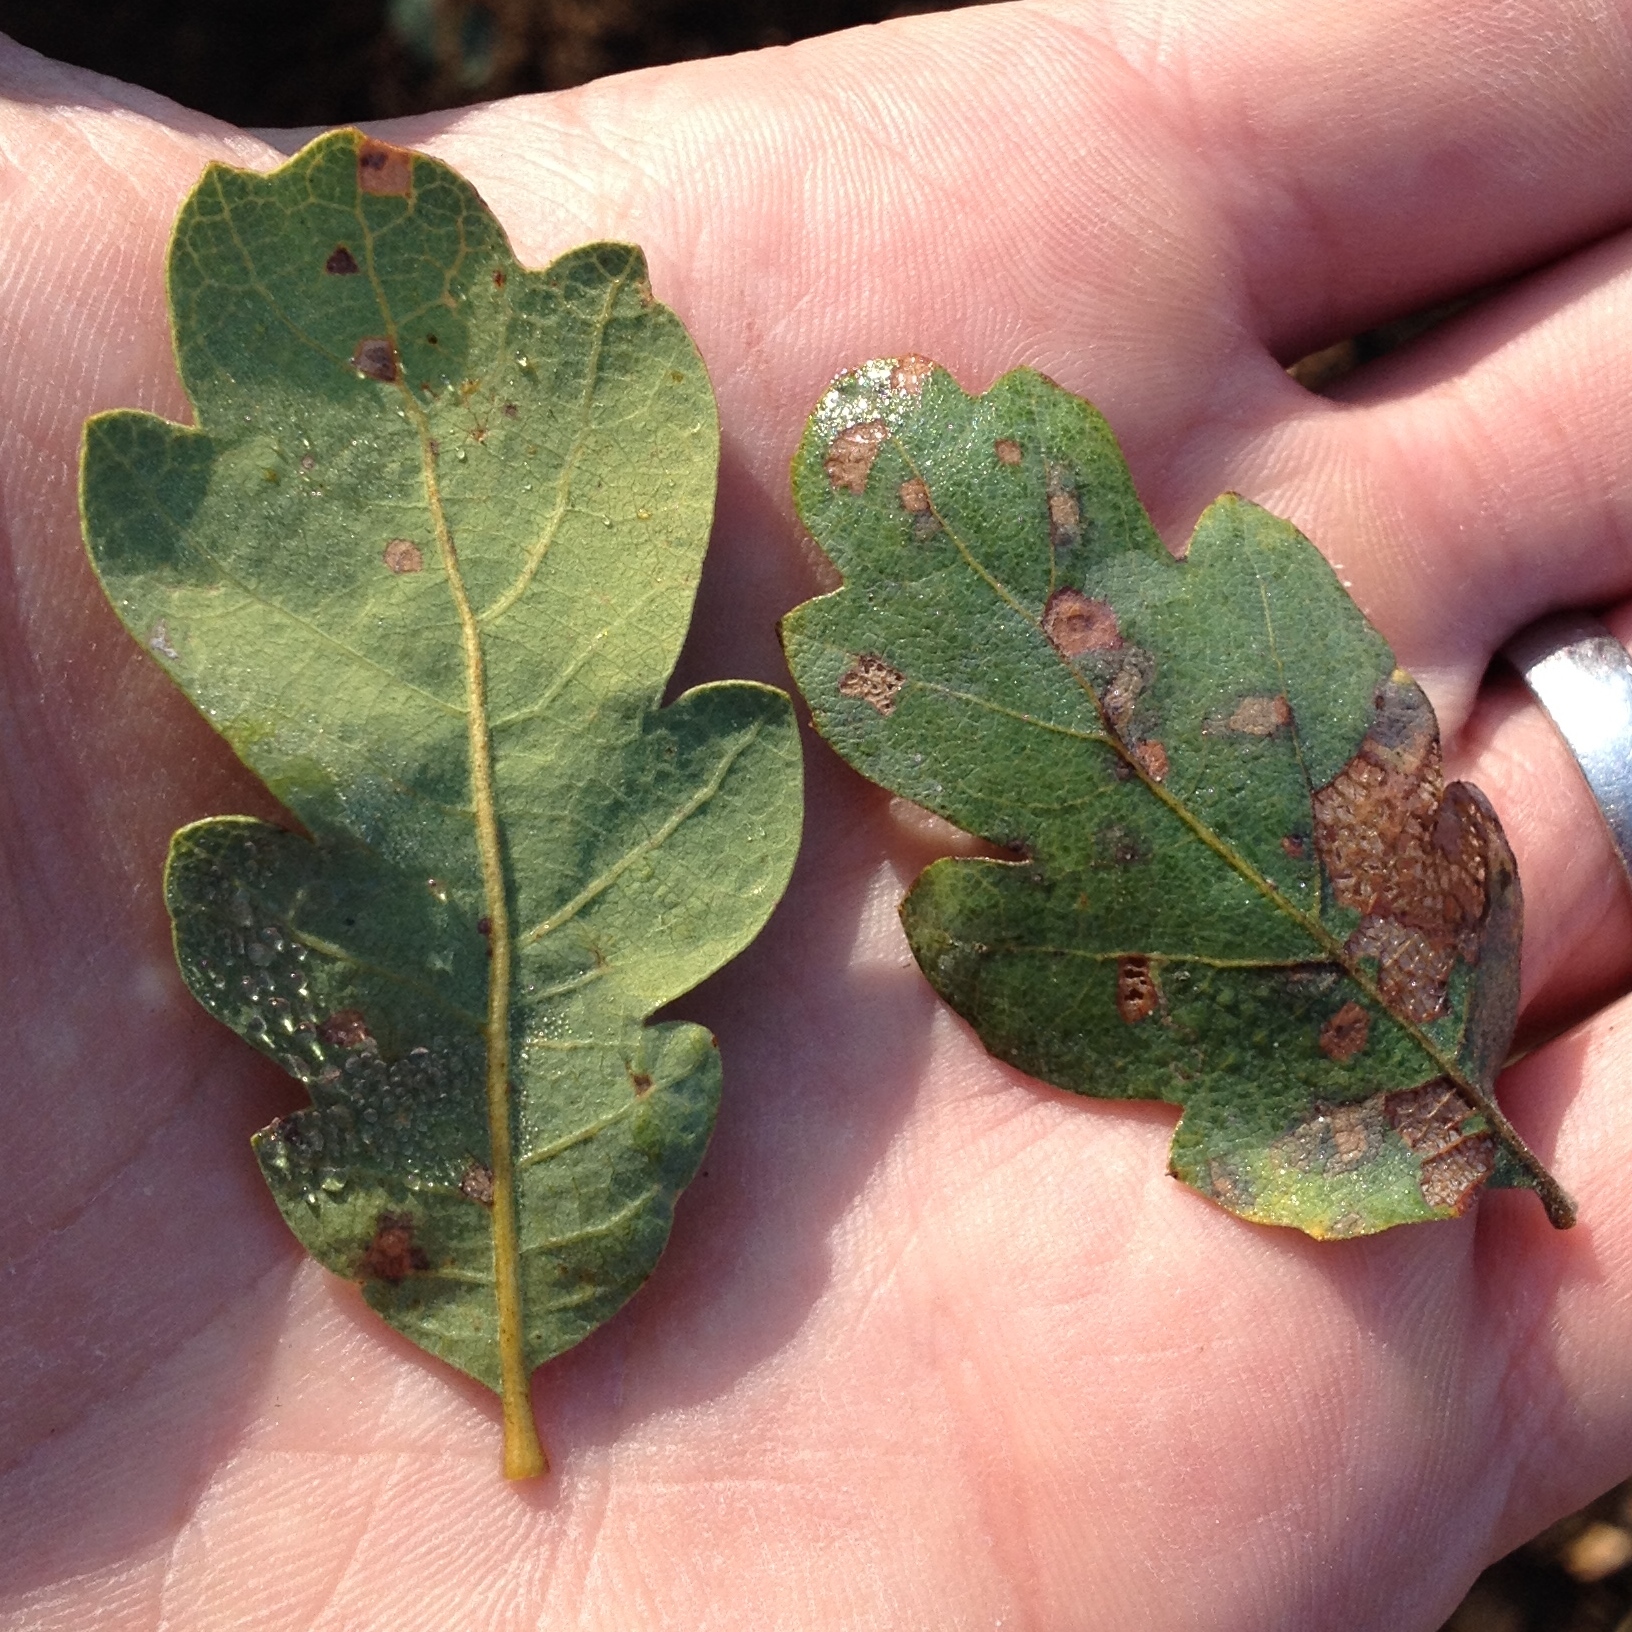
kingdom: Plantae
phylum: Tracheophyta
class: Magnoliopsida
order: Fagales
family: Fagaceae
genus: Quercus
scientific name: Quercus douglasii
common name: Blue oak
